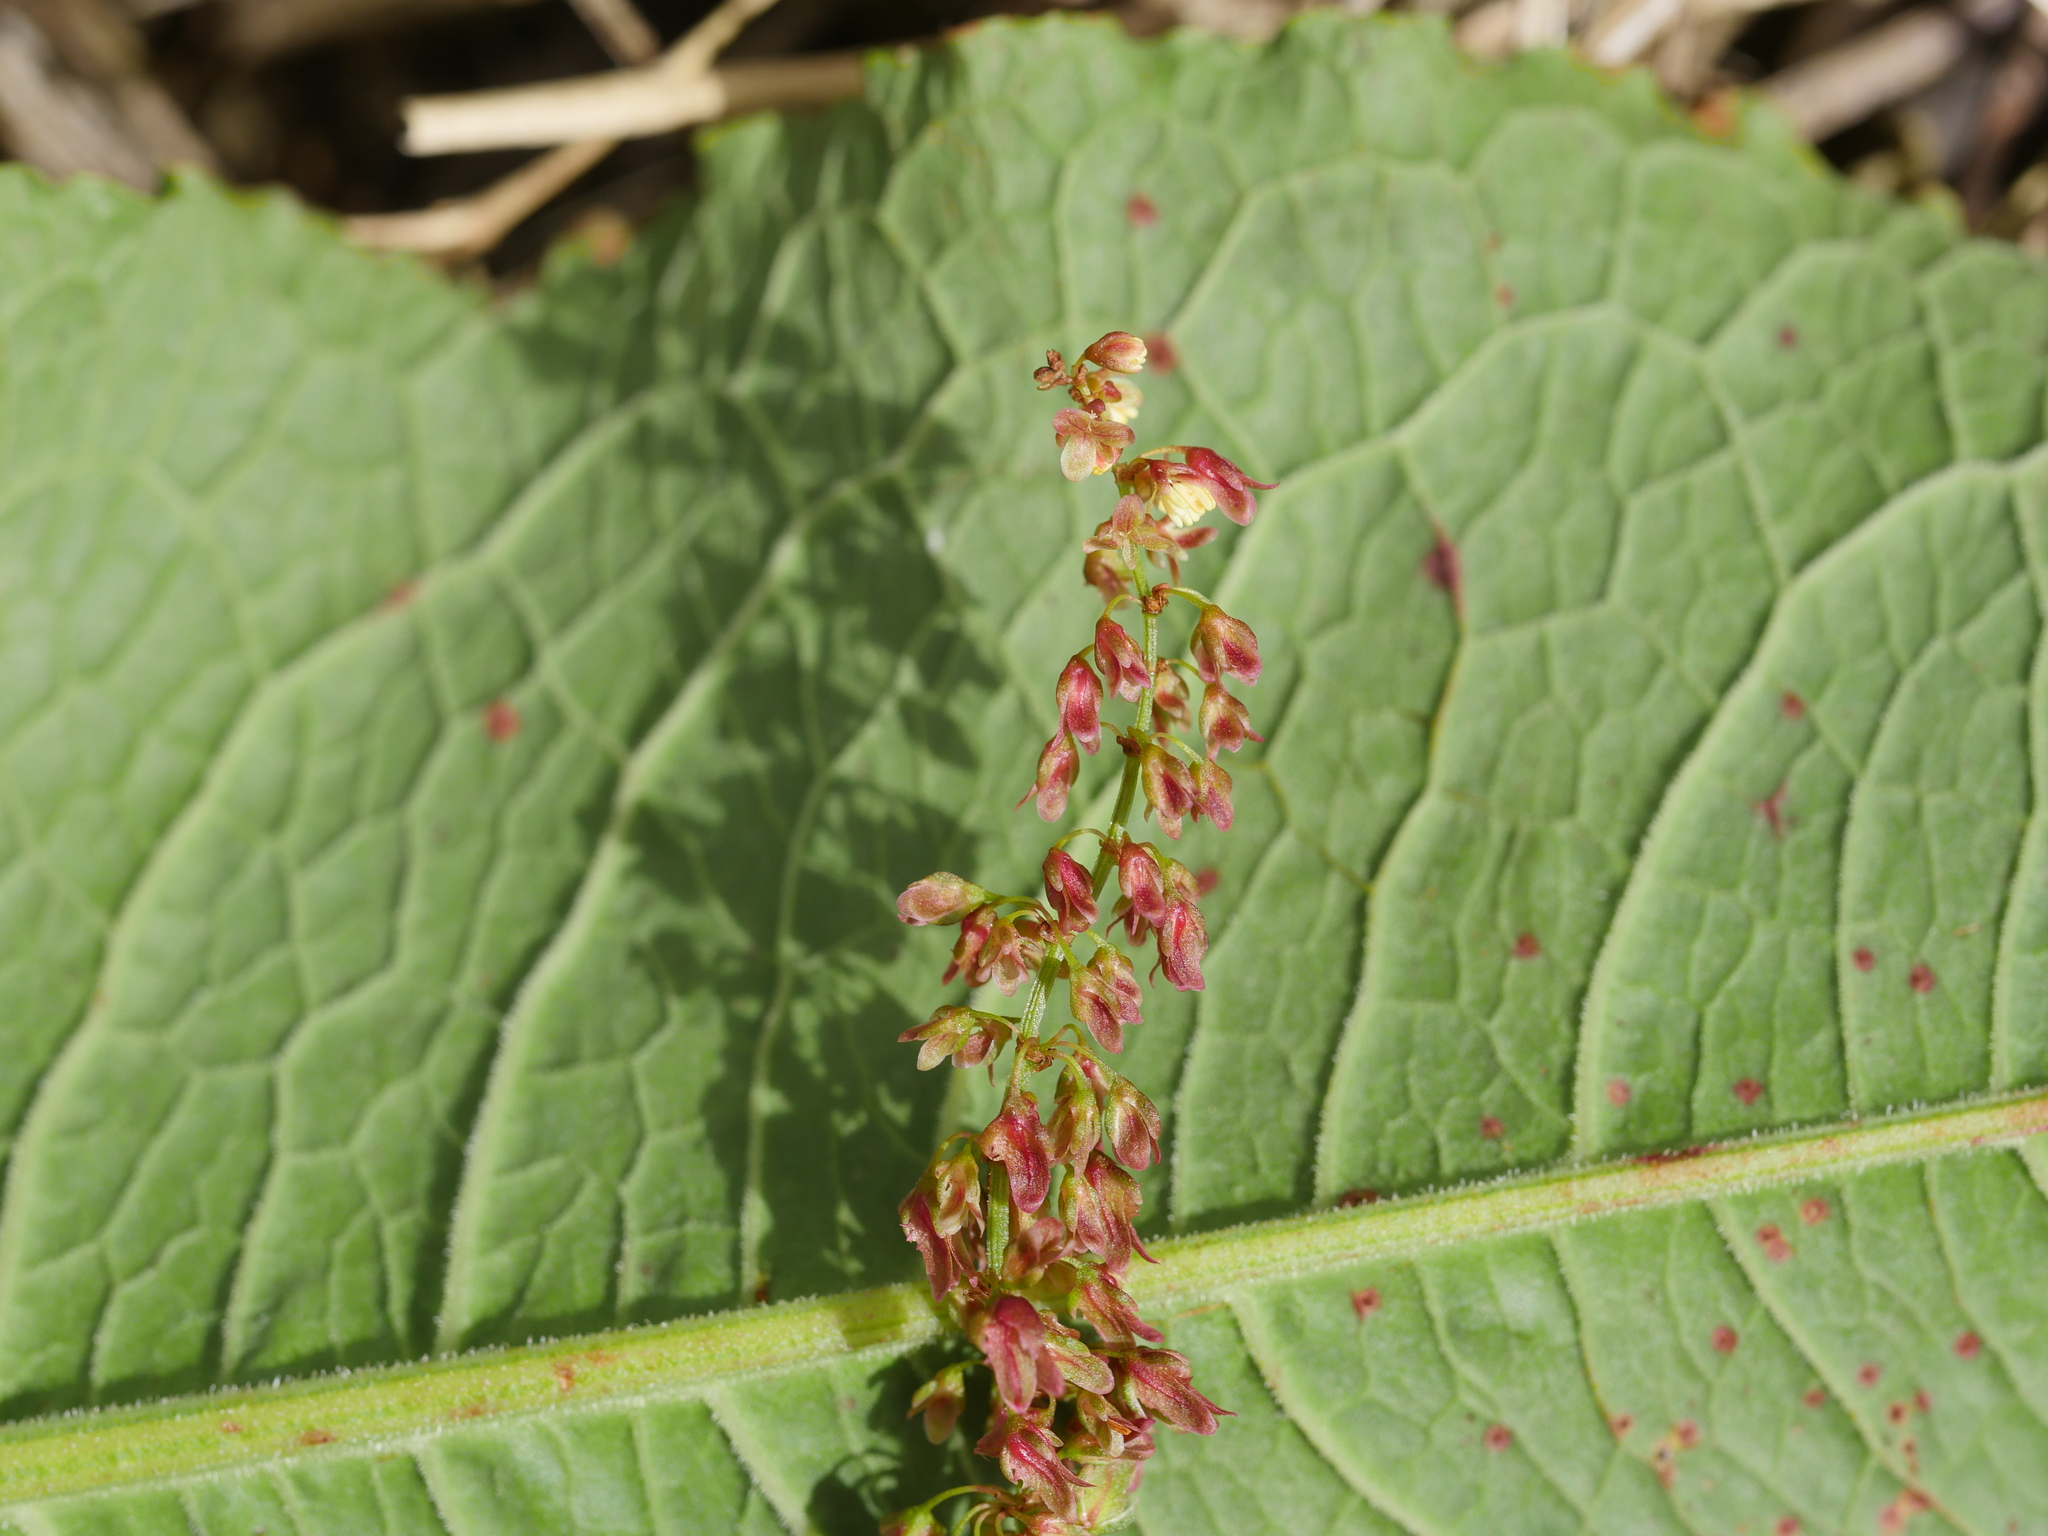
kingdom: Plantae
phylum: Tracheophyta
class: Magnoliopsida
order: Caryophyllales
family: Polygonaceae
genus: Rumex
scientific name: Rumex obtusifolius
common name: Bitter dock
